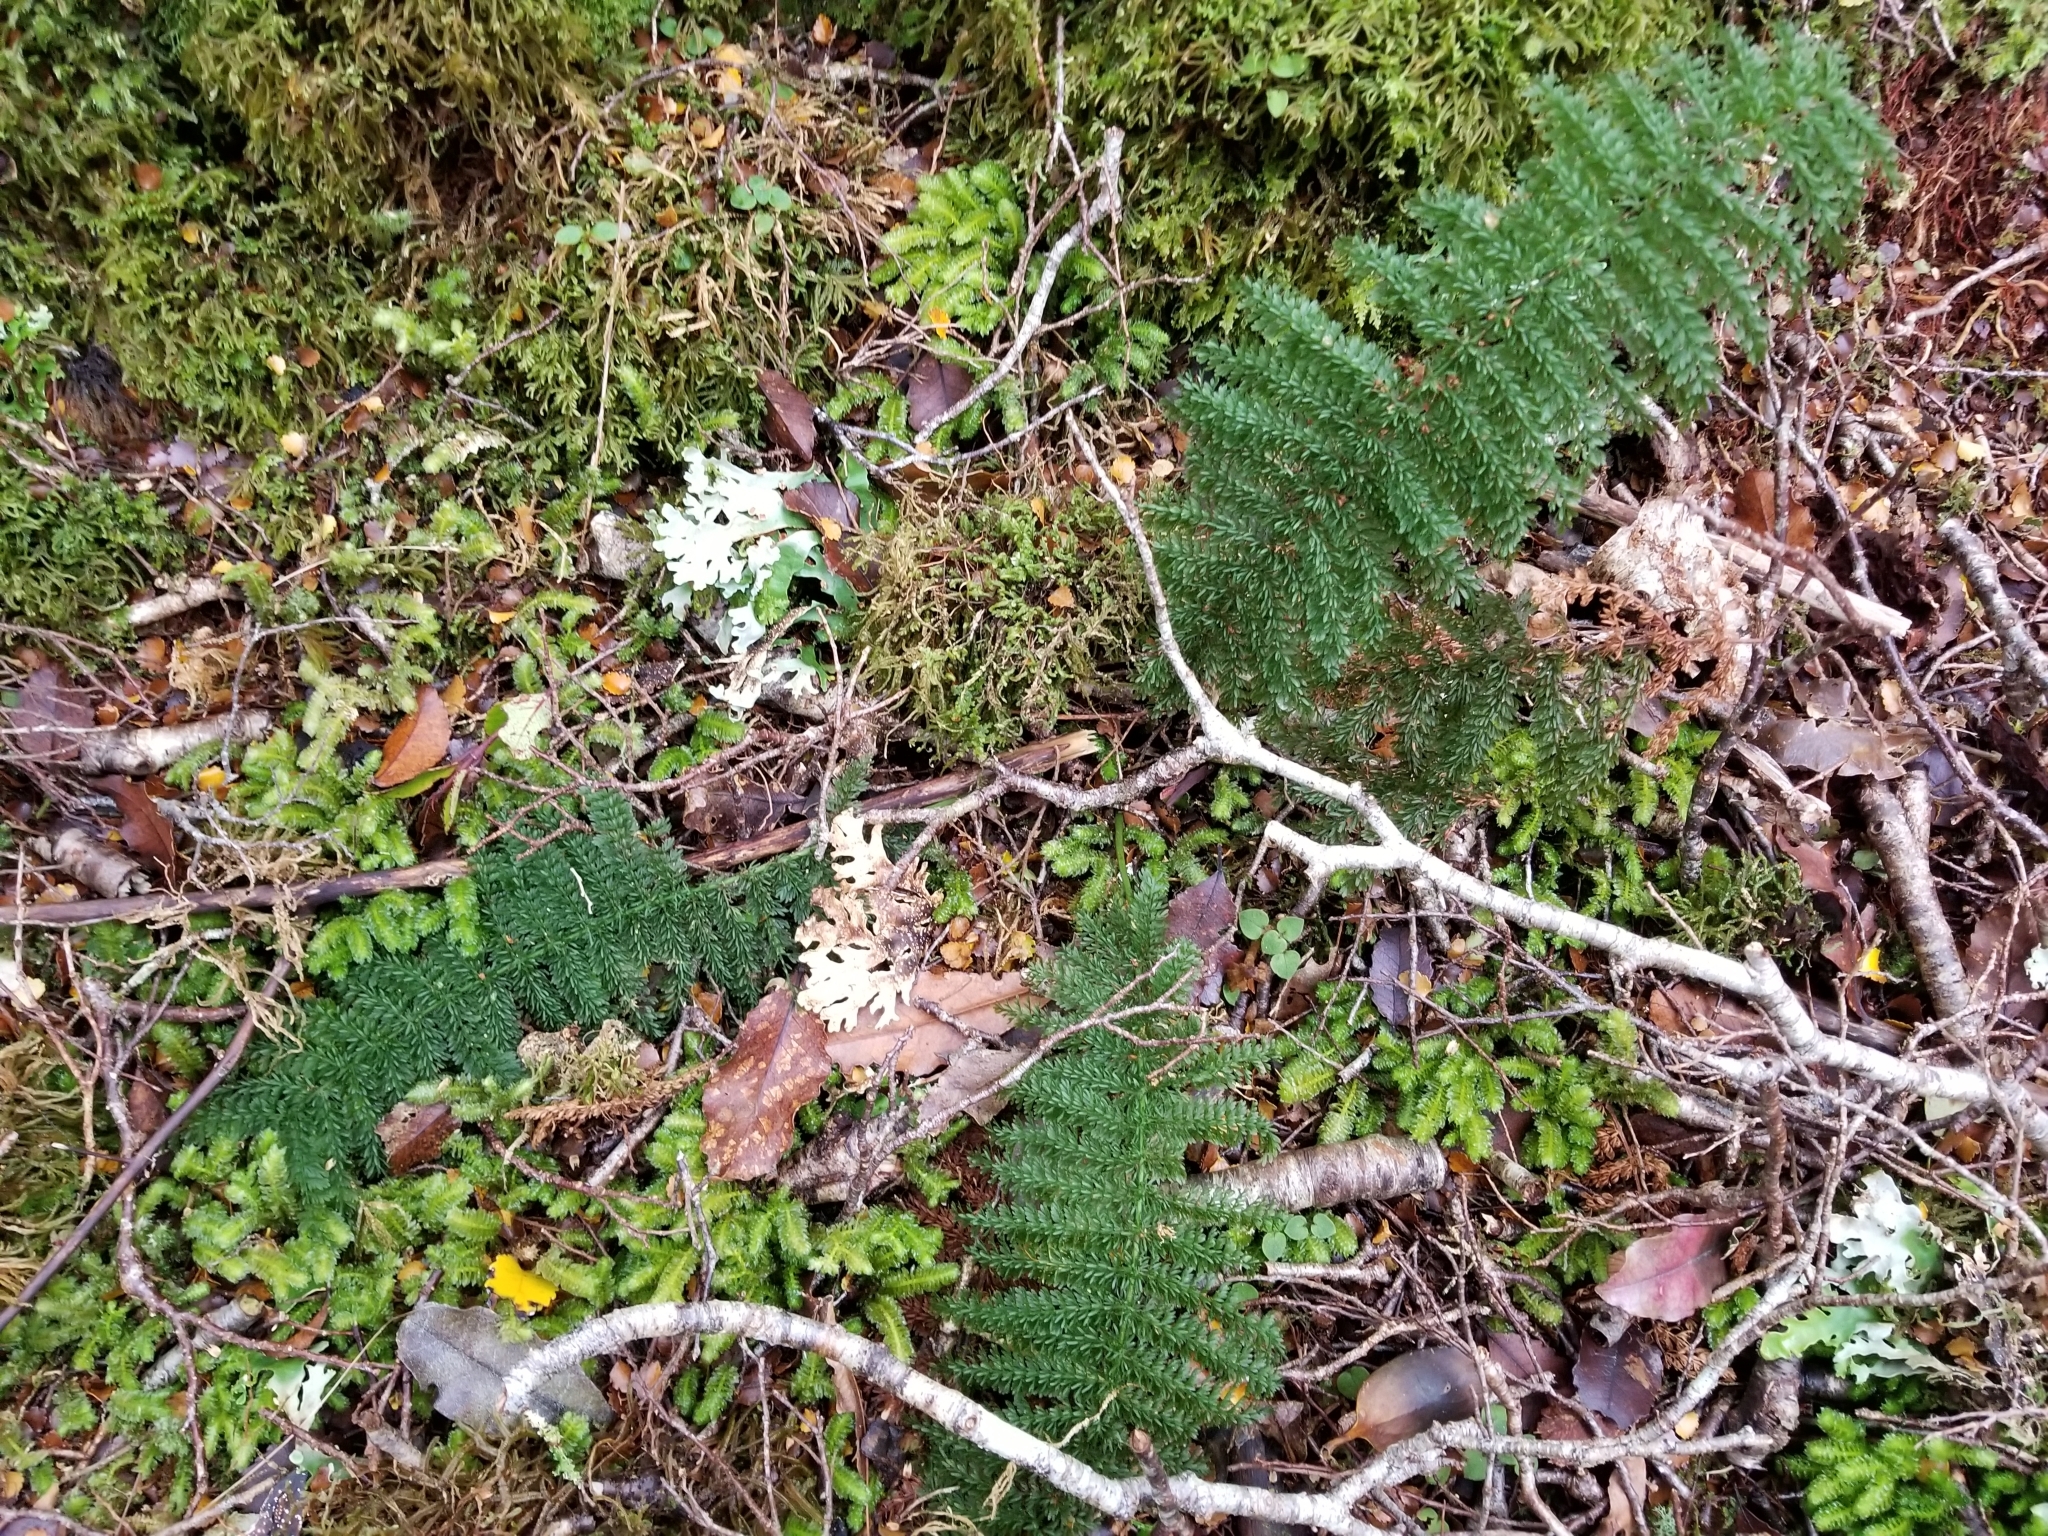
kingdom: Plantae
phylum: Tracheophyta
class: Polypodiopsida
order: Osmundales
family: Osmundaceae
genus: Leptopteris
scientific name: Leptopteris superba
